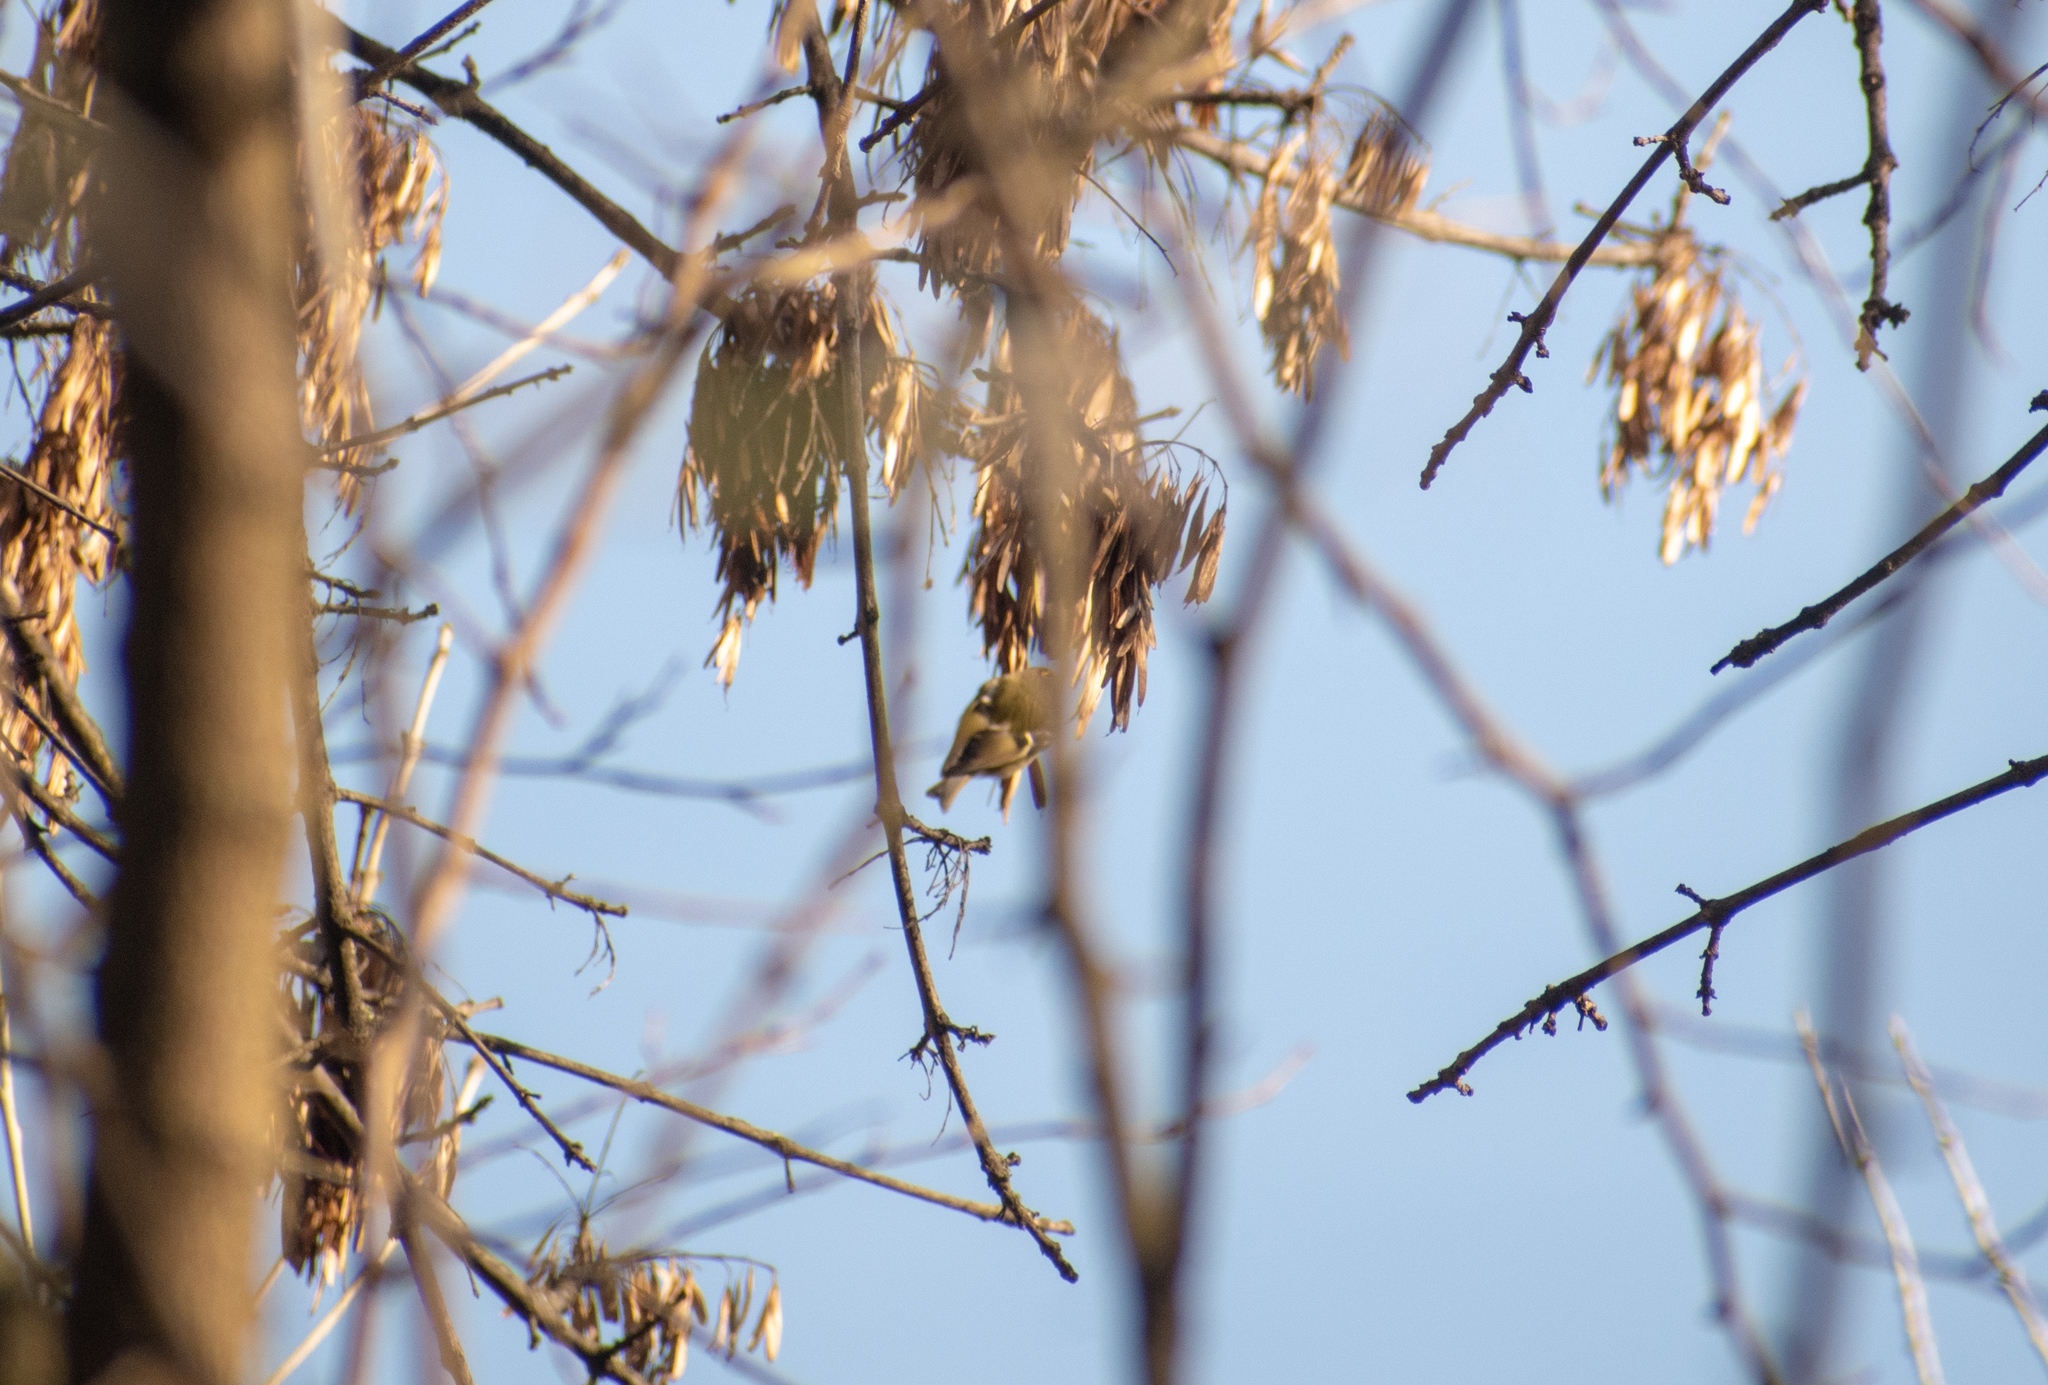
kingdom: Animalia
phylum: Chordata
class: Aves
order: Passeriformes
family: Regulidae
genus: Regulus
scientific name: Regulus regulus
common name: Goldcrest
